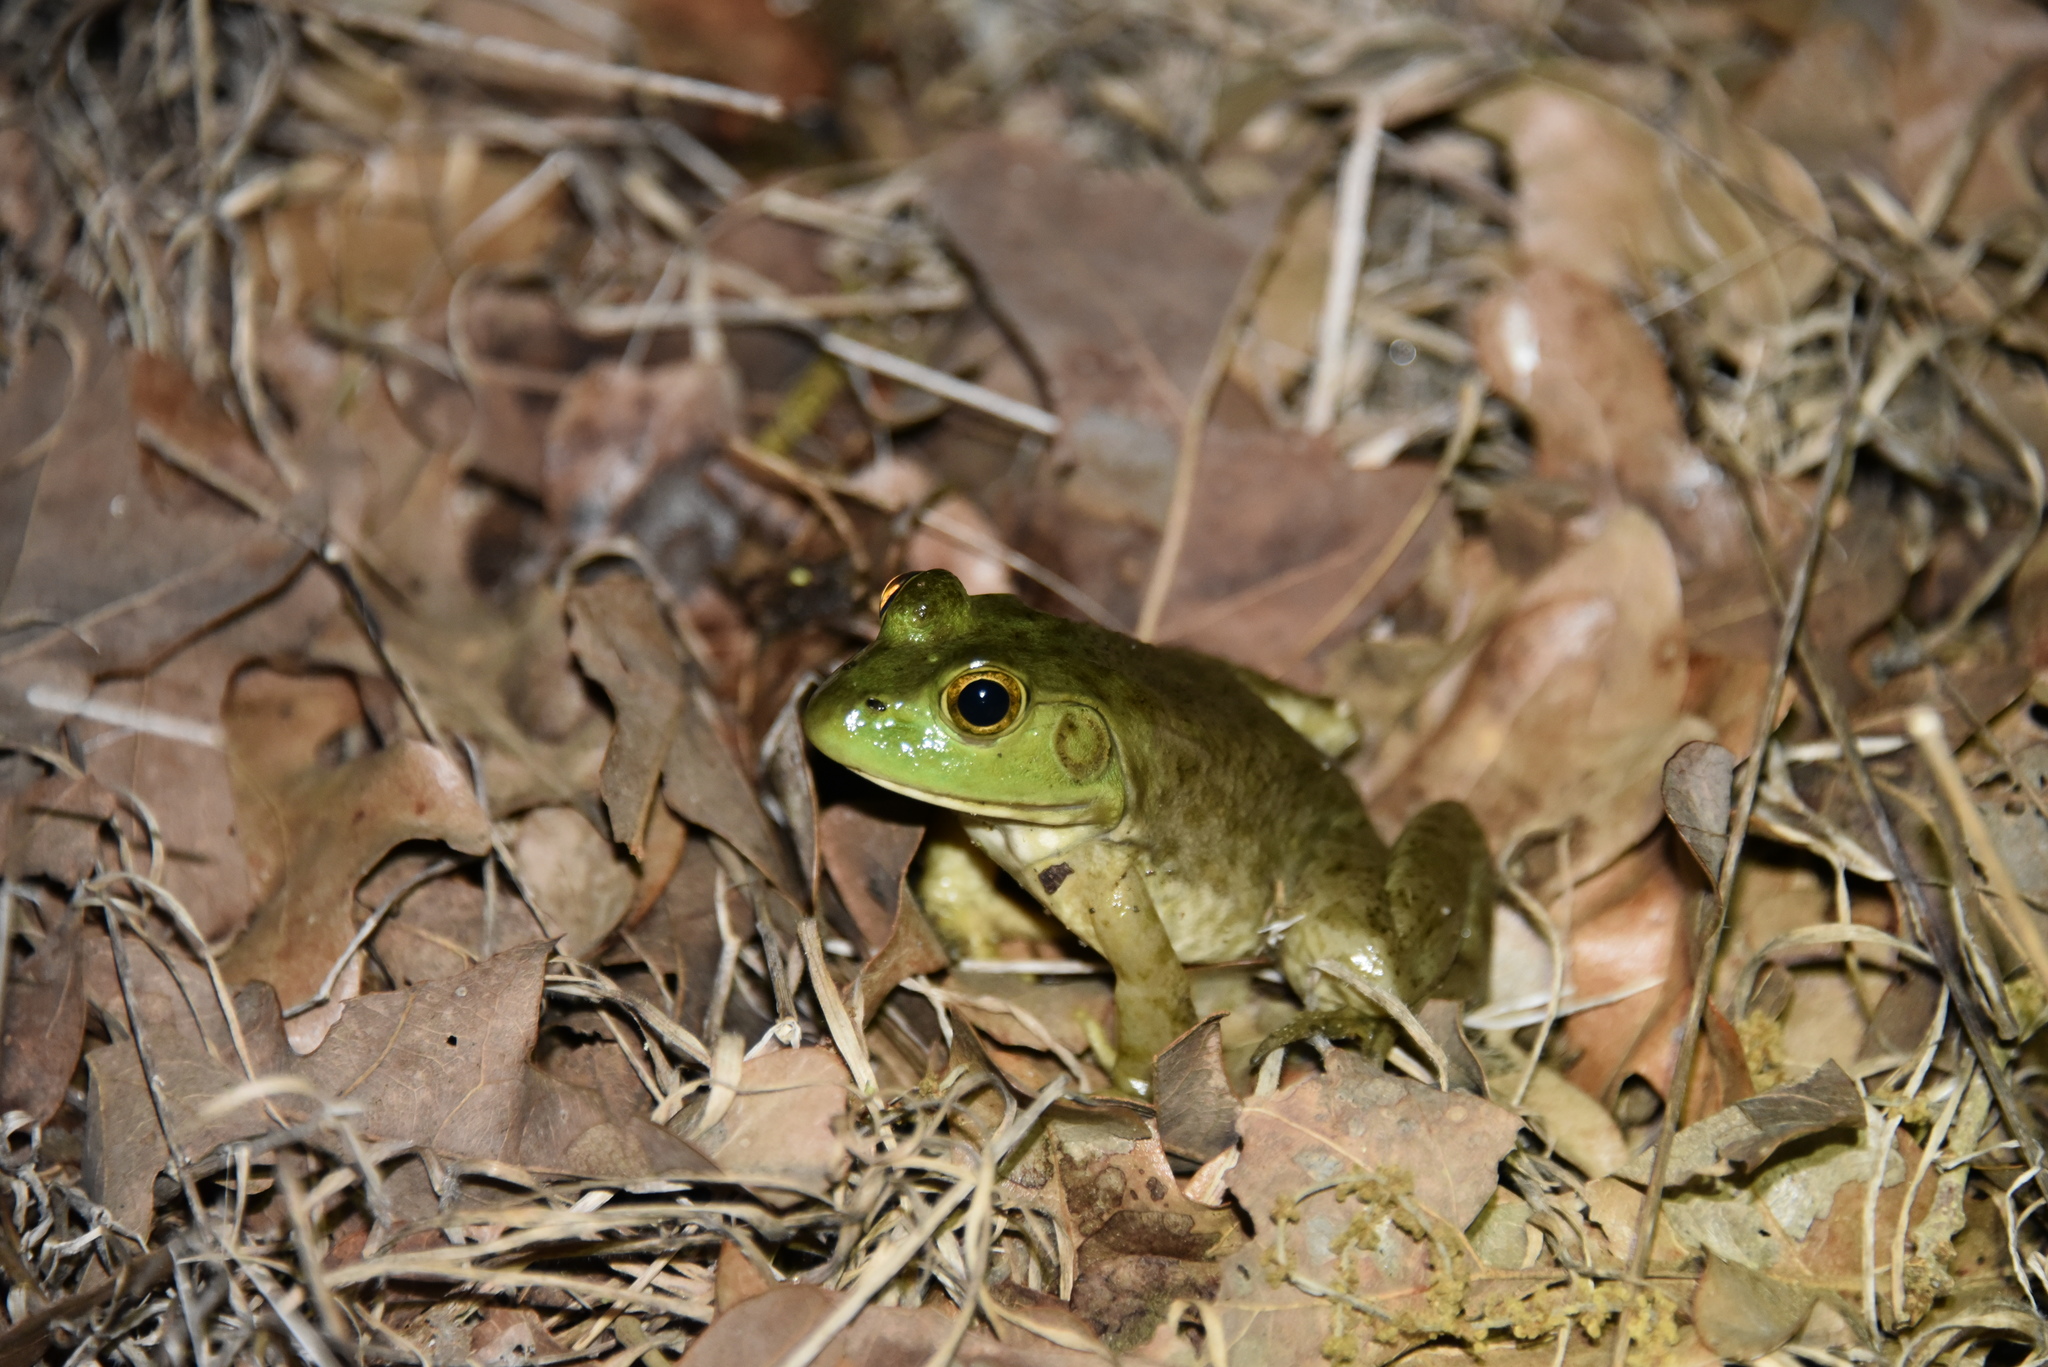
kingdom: Animalia
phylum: Chordata
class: Amphibia
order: Anura
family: Ranidae
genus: Lithobates
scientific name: Lithobates catesbeianus
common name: American bullfrog
